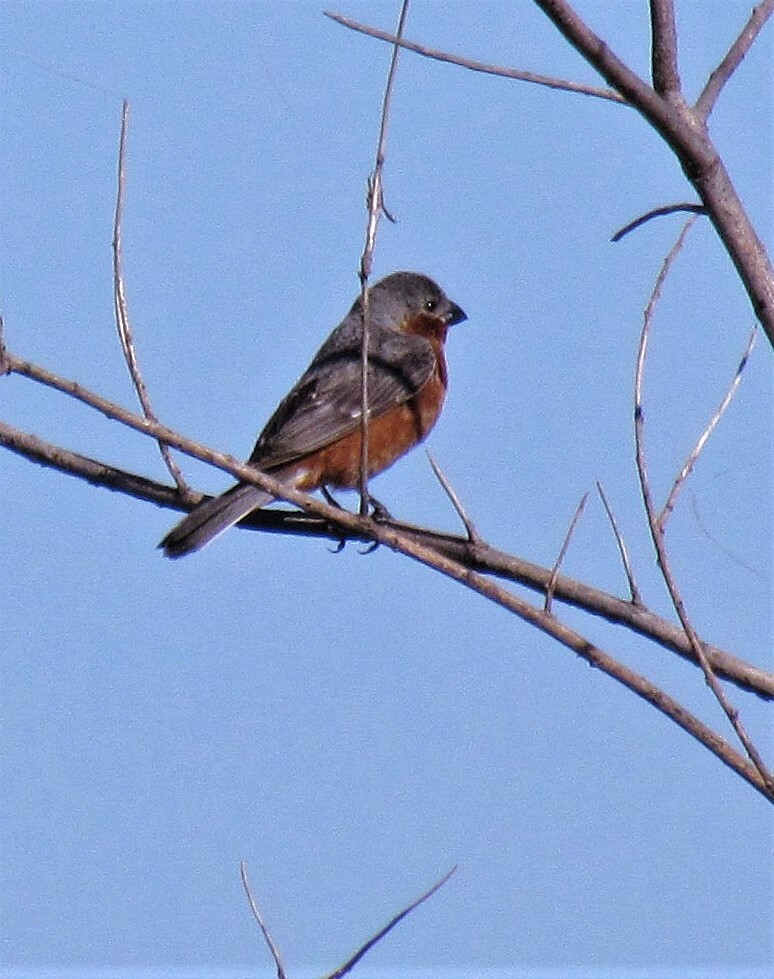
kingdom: Animalia
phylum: Chordata
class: Aves
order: Passeriformes
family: Thraupidae
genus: Sporophila
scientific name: Sporophila hypochroma
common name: Rufous-rumped seedeater
